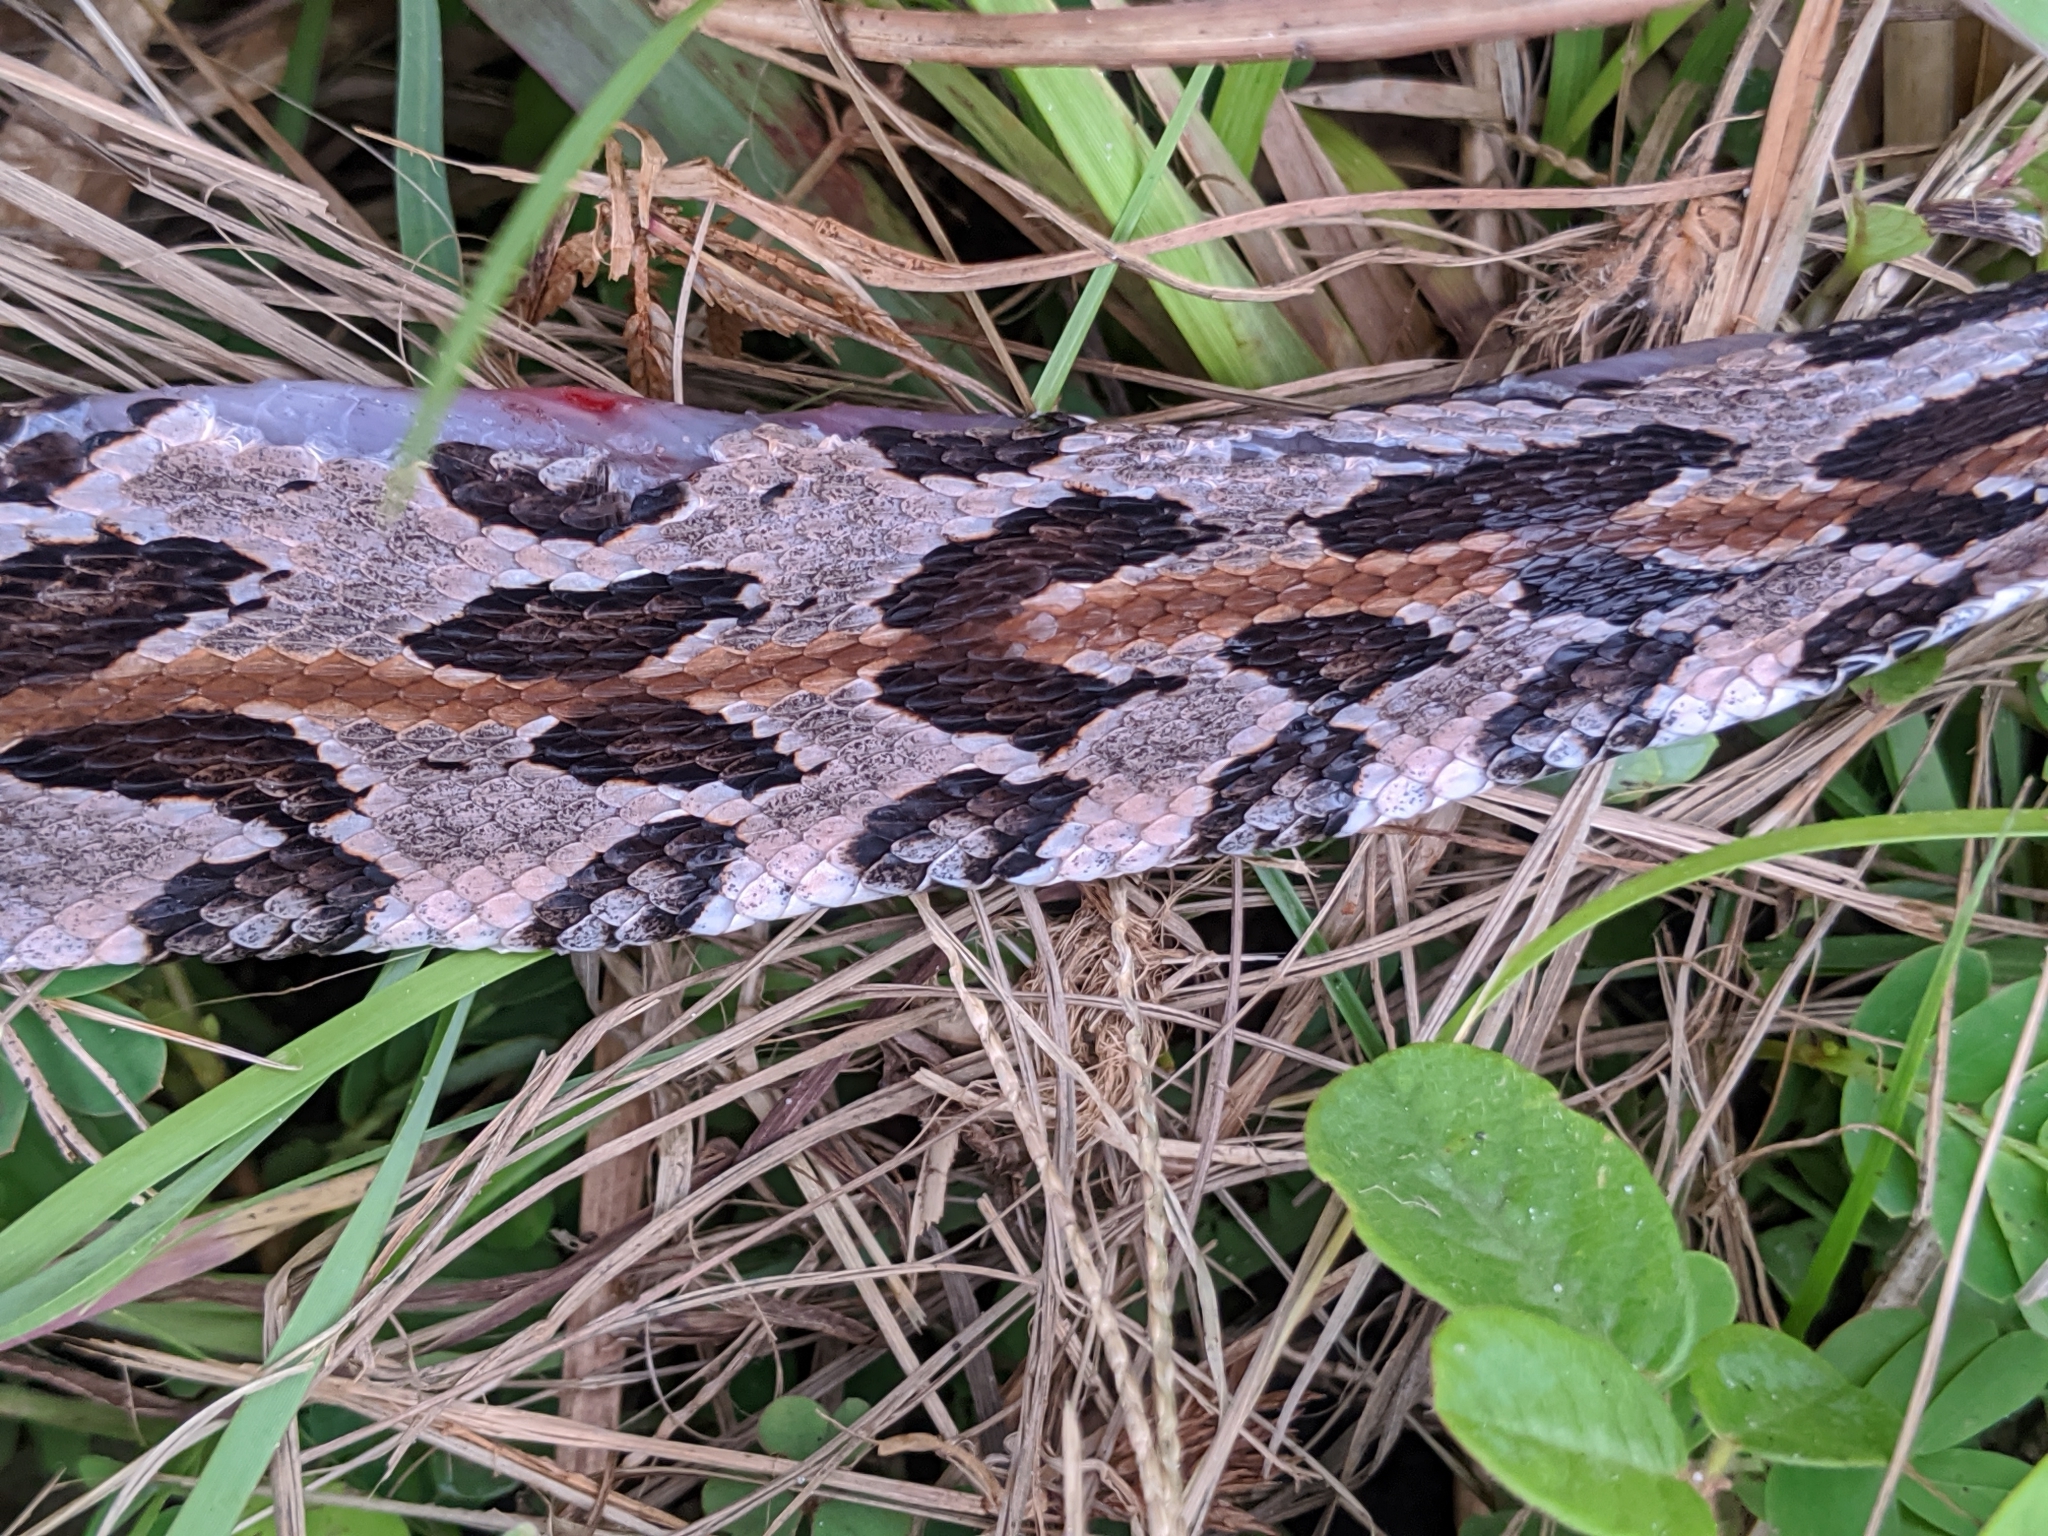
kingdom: Animalia
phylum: Chordata
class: Squamata
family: Viperidae
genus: Crotalus
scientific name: Crotalus horridus
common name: Timber rattlesnake
